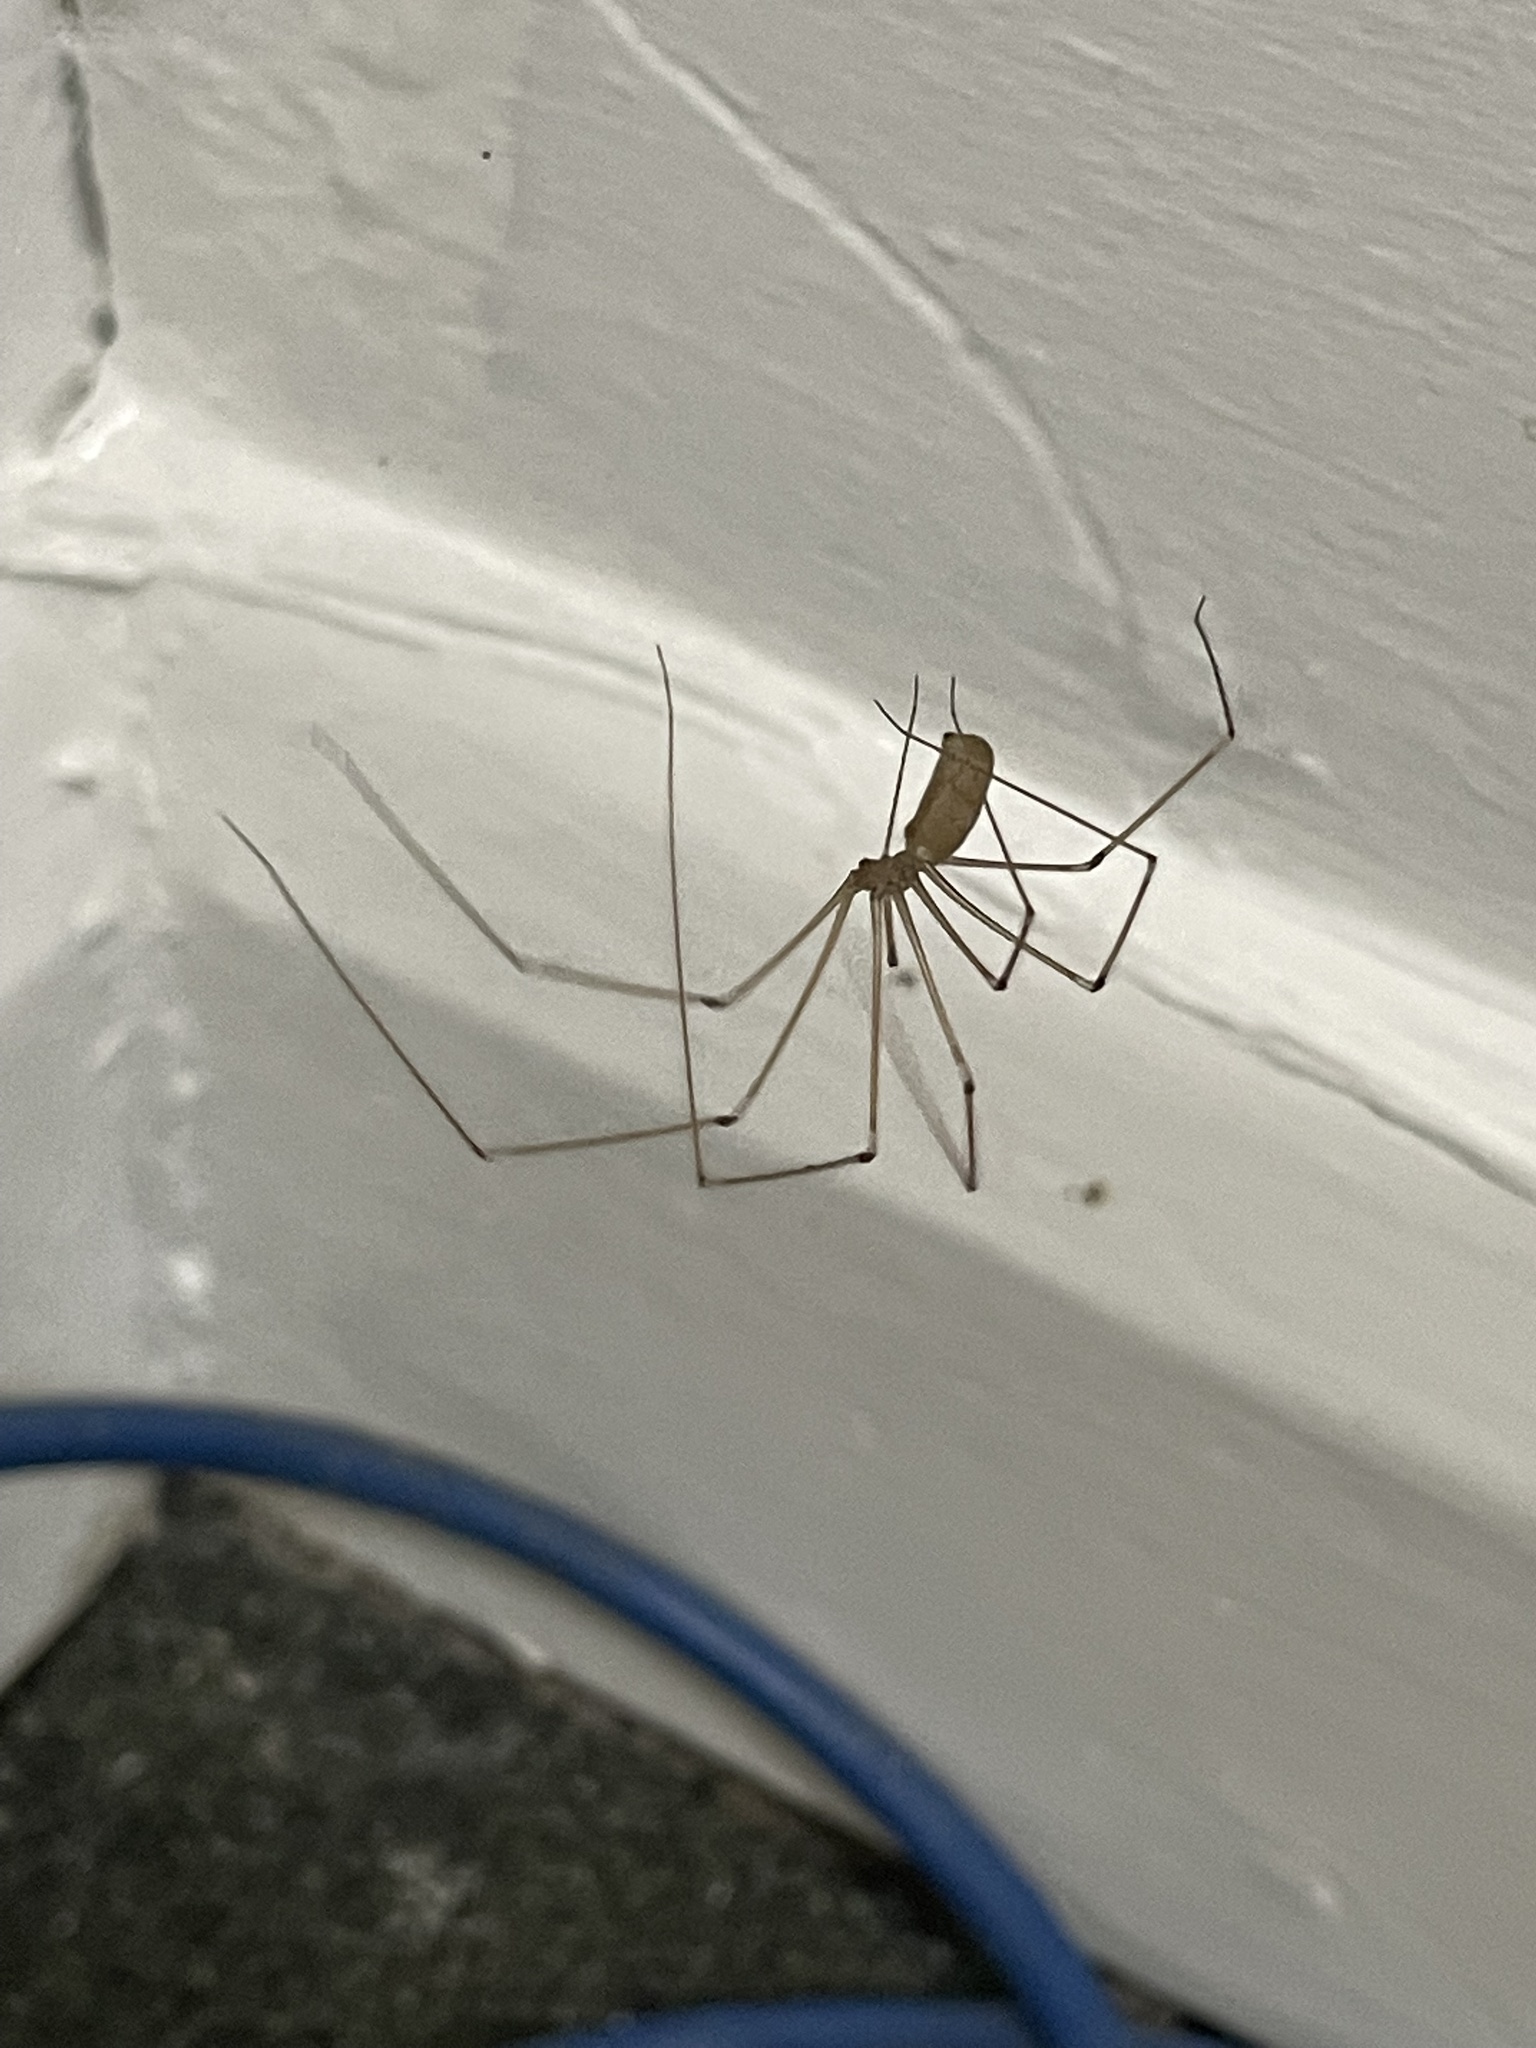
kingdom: Animalia
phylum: Arthropoda
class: Arachnida
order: Araneae
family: Pholcidae
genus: Pholcus
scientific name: Pholcus phalangioides
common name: Longbodied cellar spider
